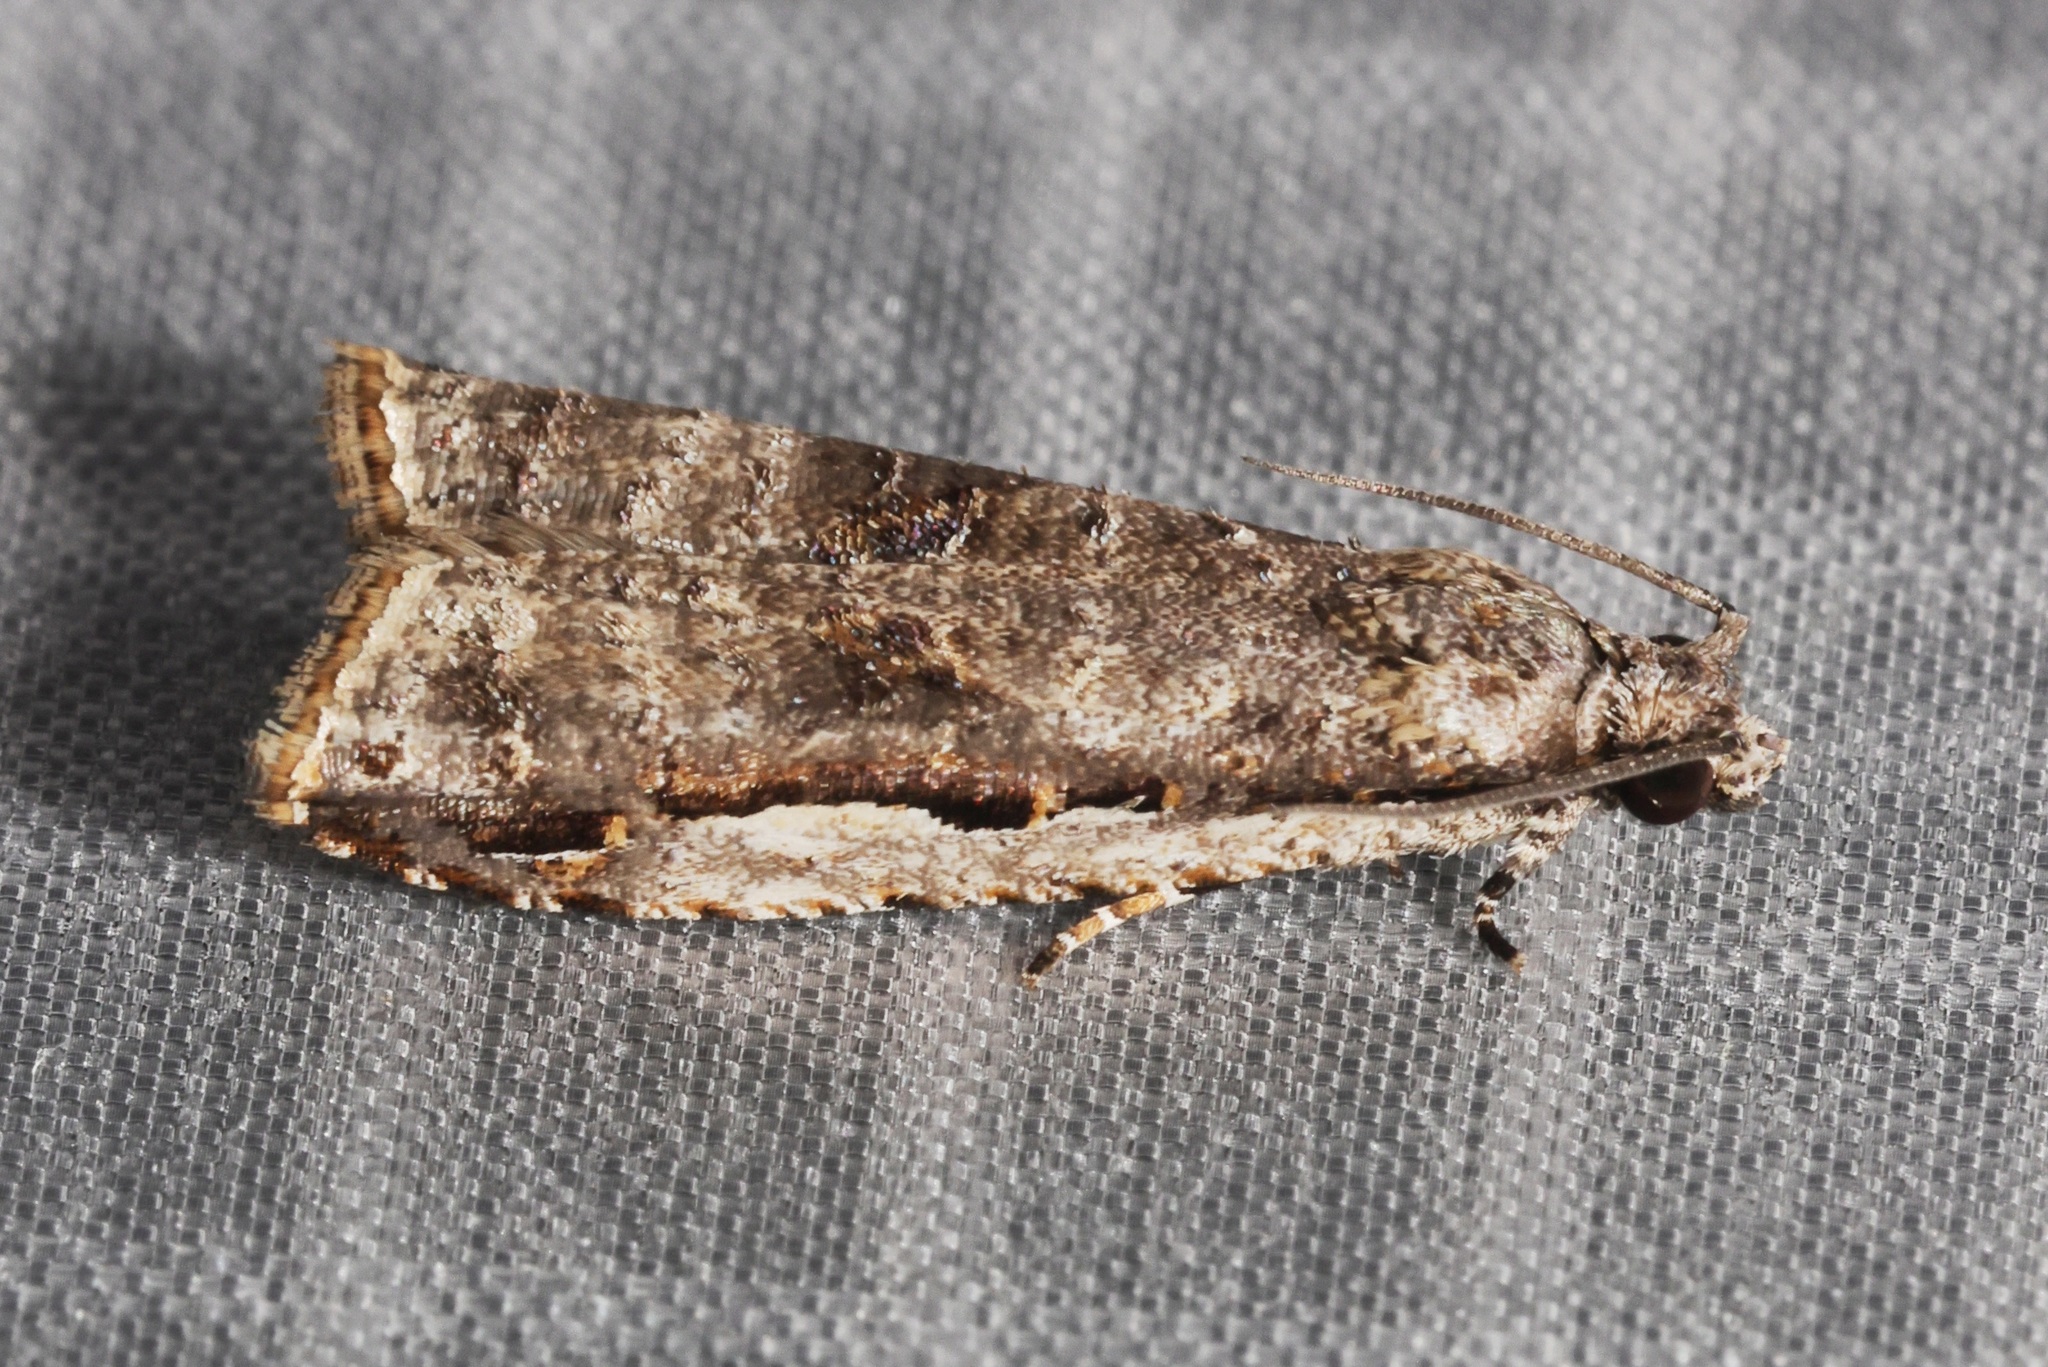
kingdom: Animalia
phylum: Arthropoda
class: Insecta
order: Lepidoptera
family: Tortricidae
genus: Phricanthes
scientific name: Phricanthes flexilineana
